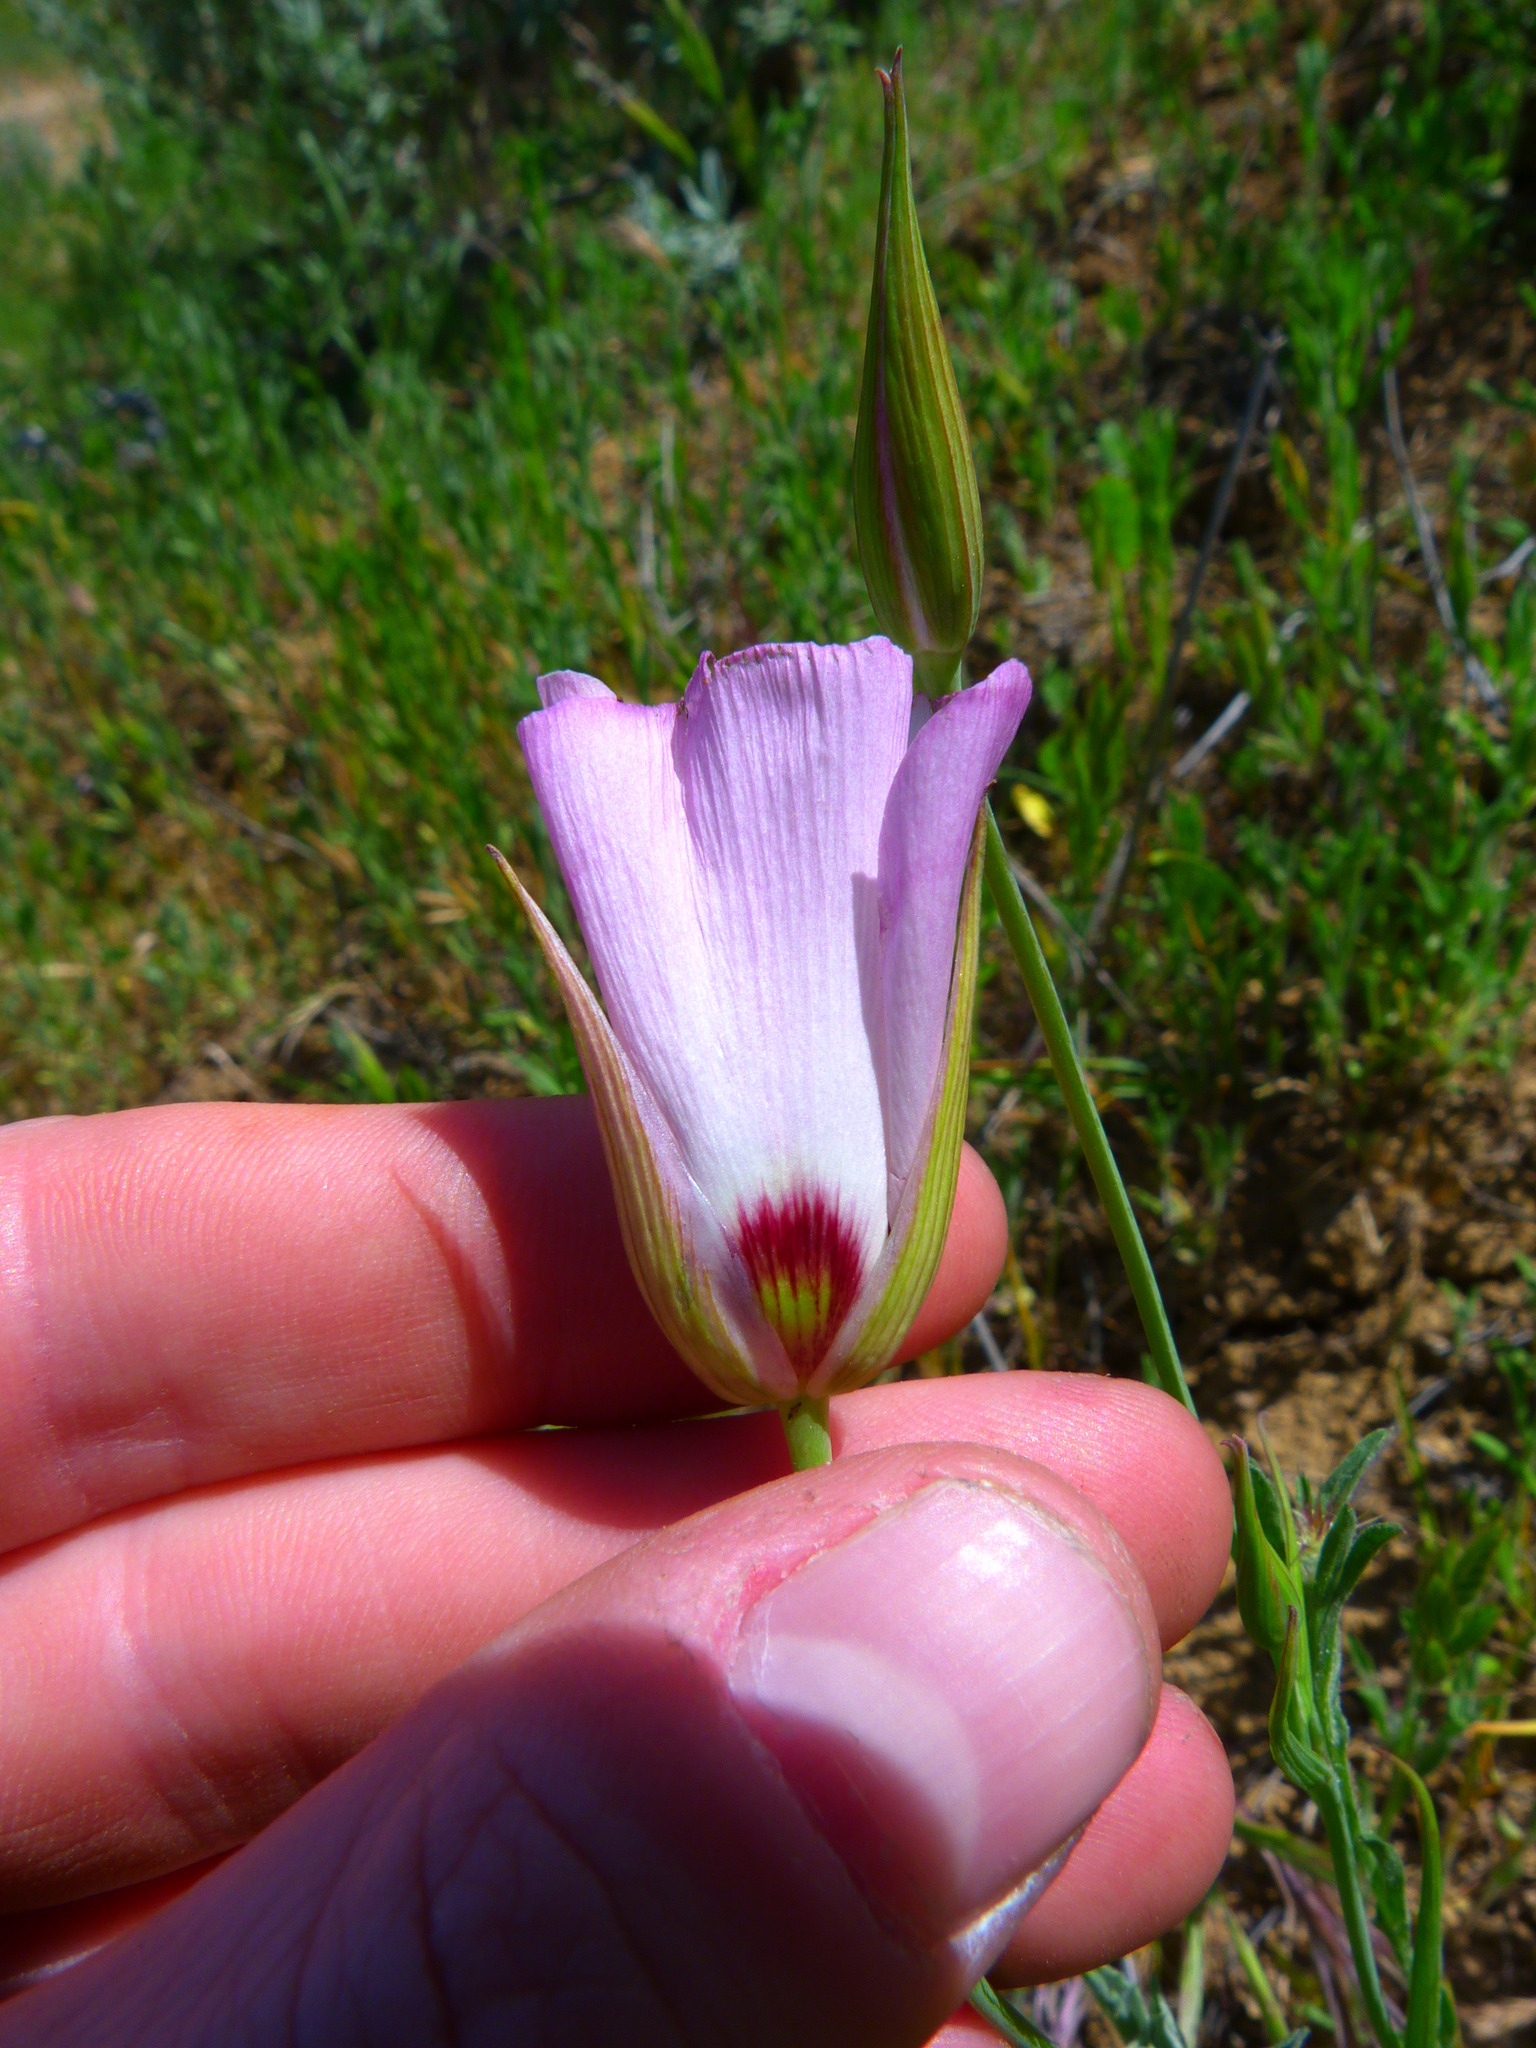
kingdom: Plantae
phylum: Tracheophyta
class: Liliopsida
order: Liliales
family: Liliaceae
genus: Calochortus
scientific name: Calochortus catalinae
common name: Catalina mariposa-lily
